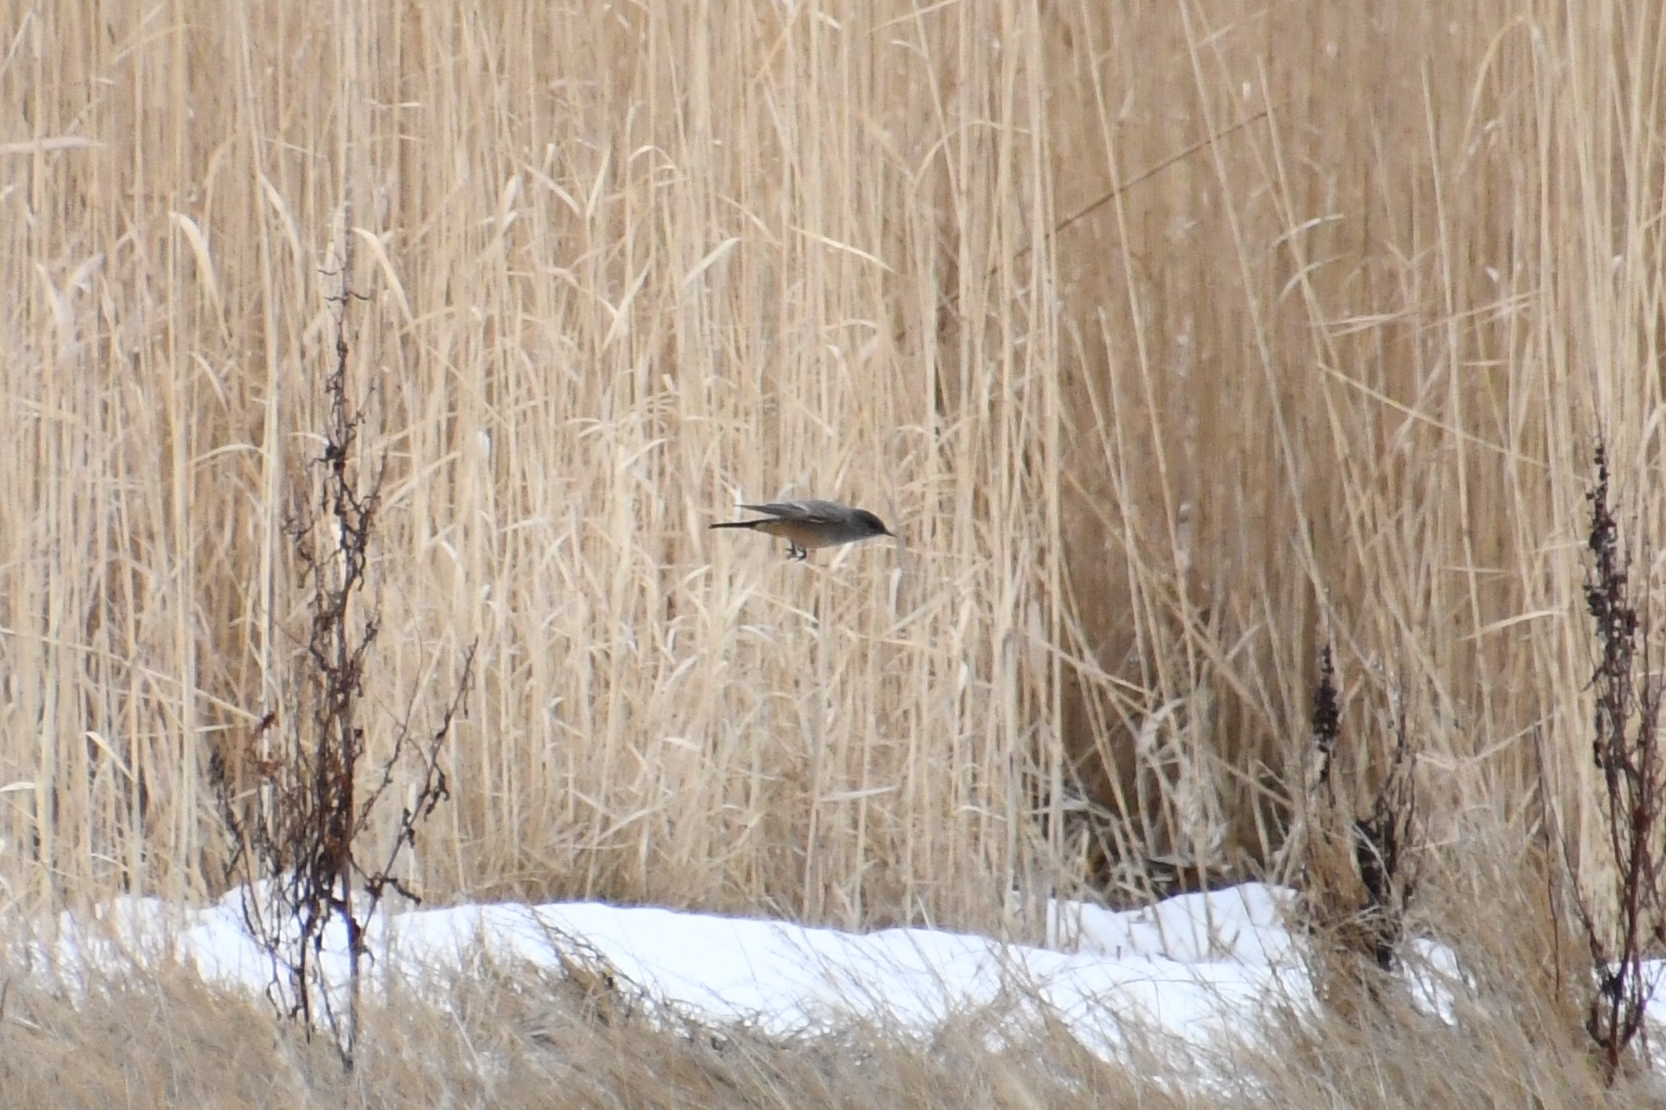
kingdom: Animalia
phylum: Chordata
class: Aves
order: Passeriformes
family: Tyrannidae
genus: Sayornis
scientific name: Sayornis saya
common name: Say's phoebe
